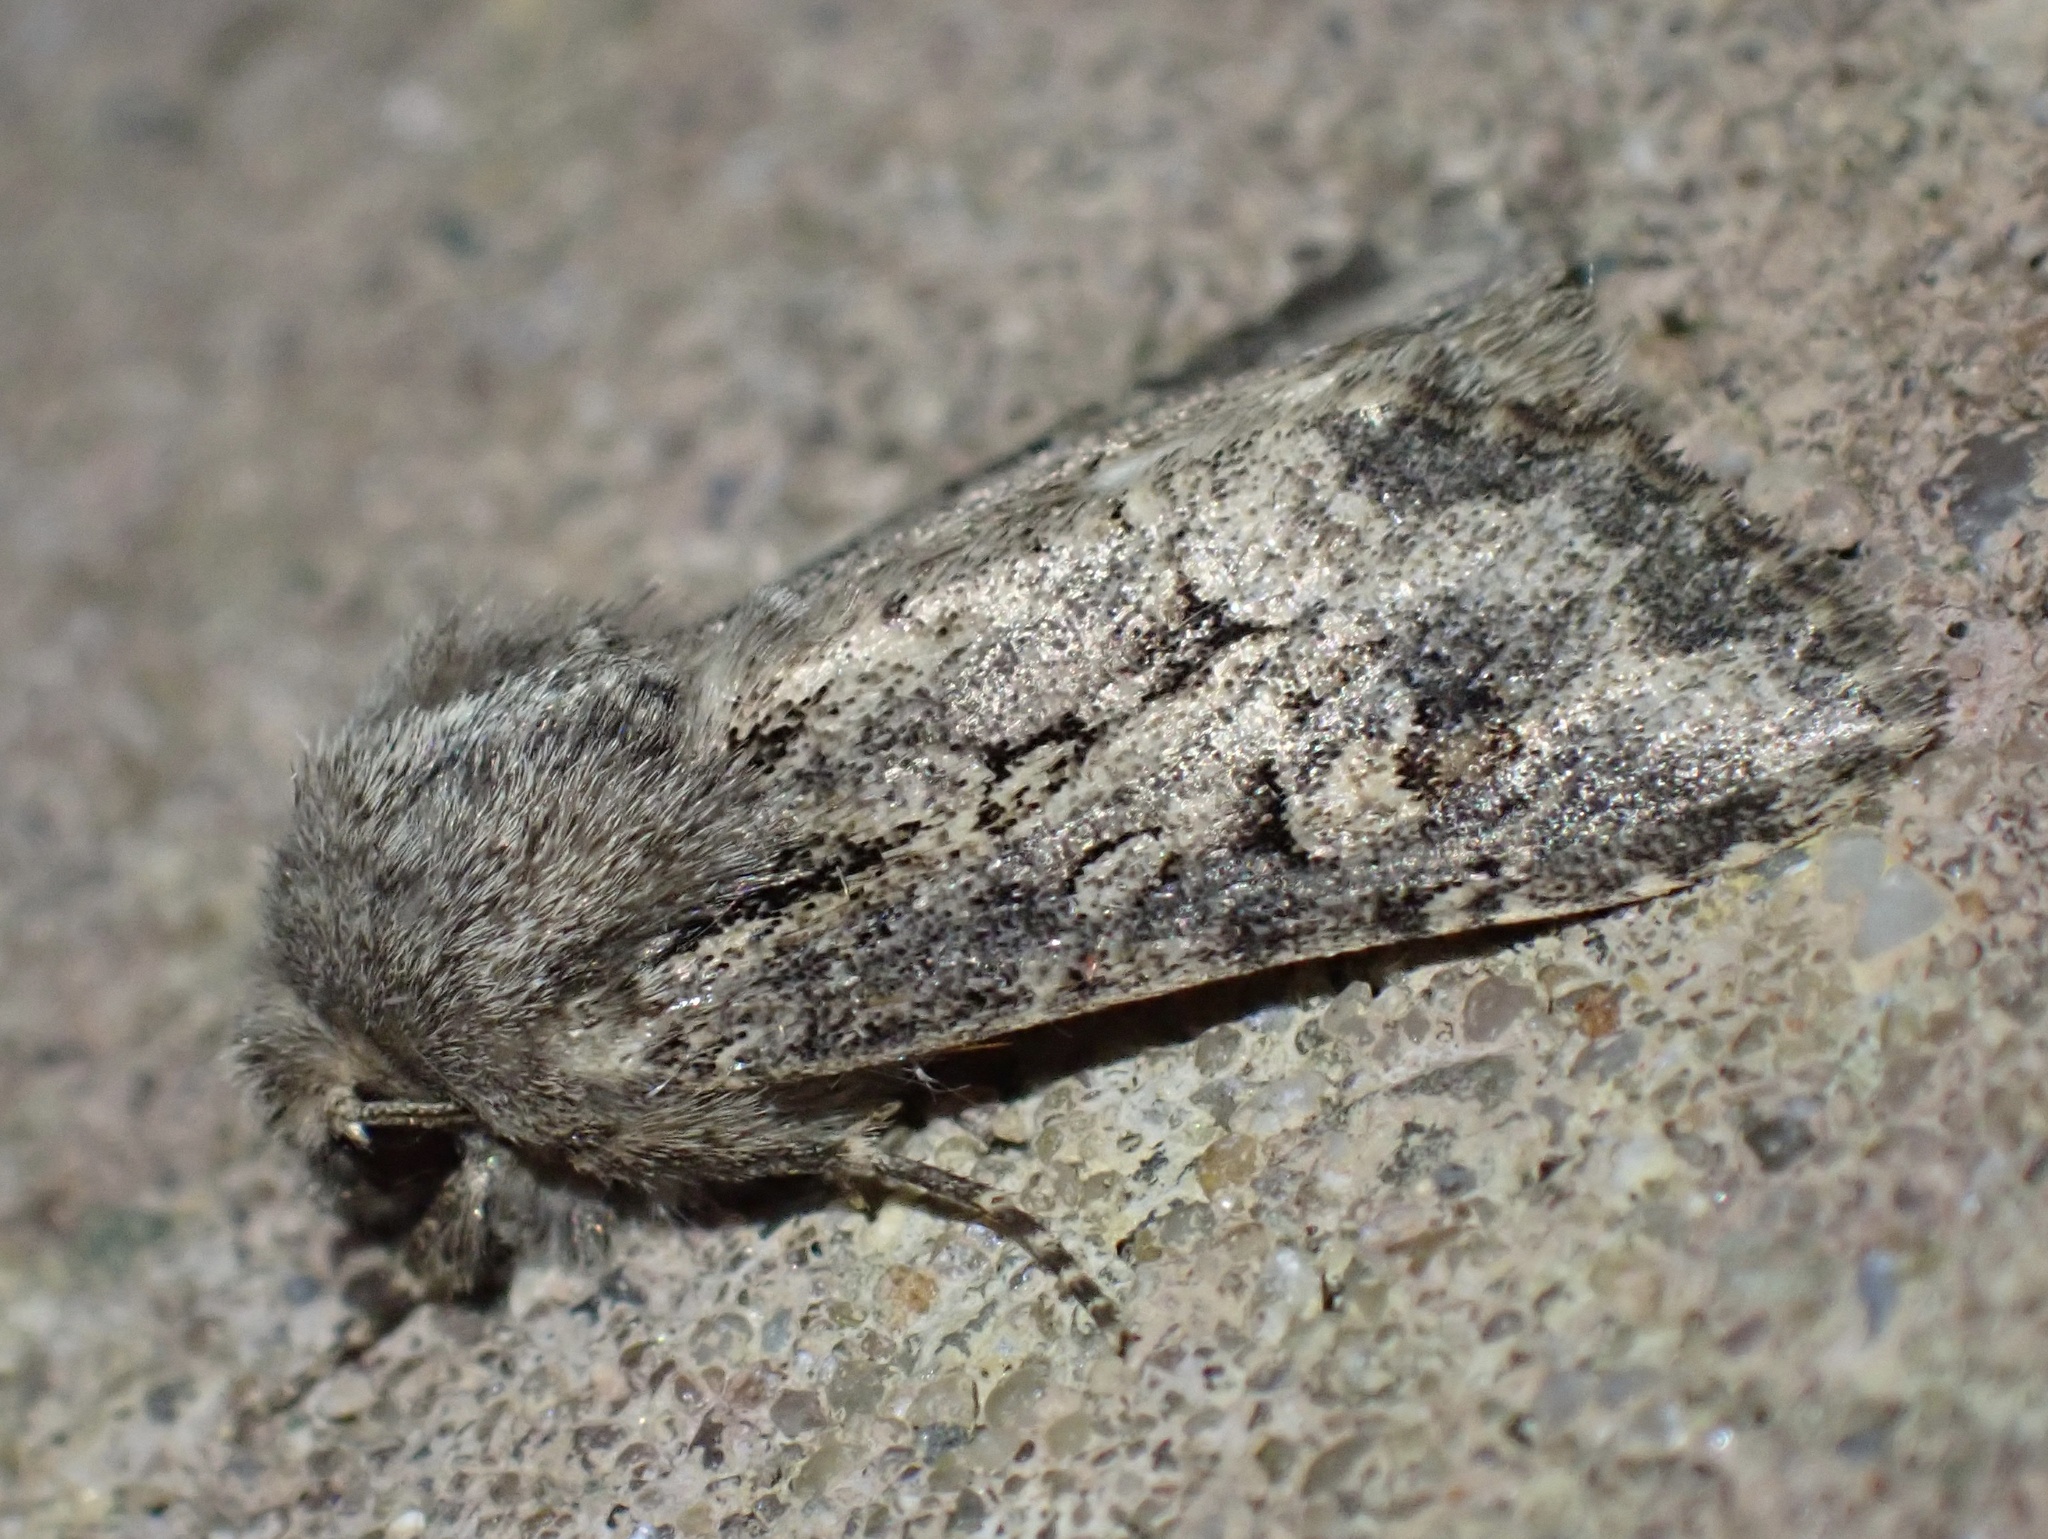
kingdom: Animalia
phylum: Arthropoda
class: Insecta
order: Lepidoptera
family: Noctuidae
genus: Luperina
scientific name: Luperina testacea
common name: Flounced rustic
